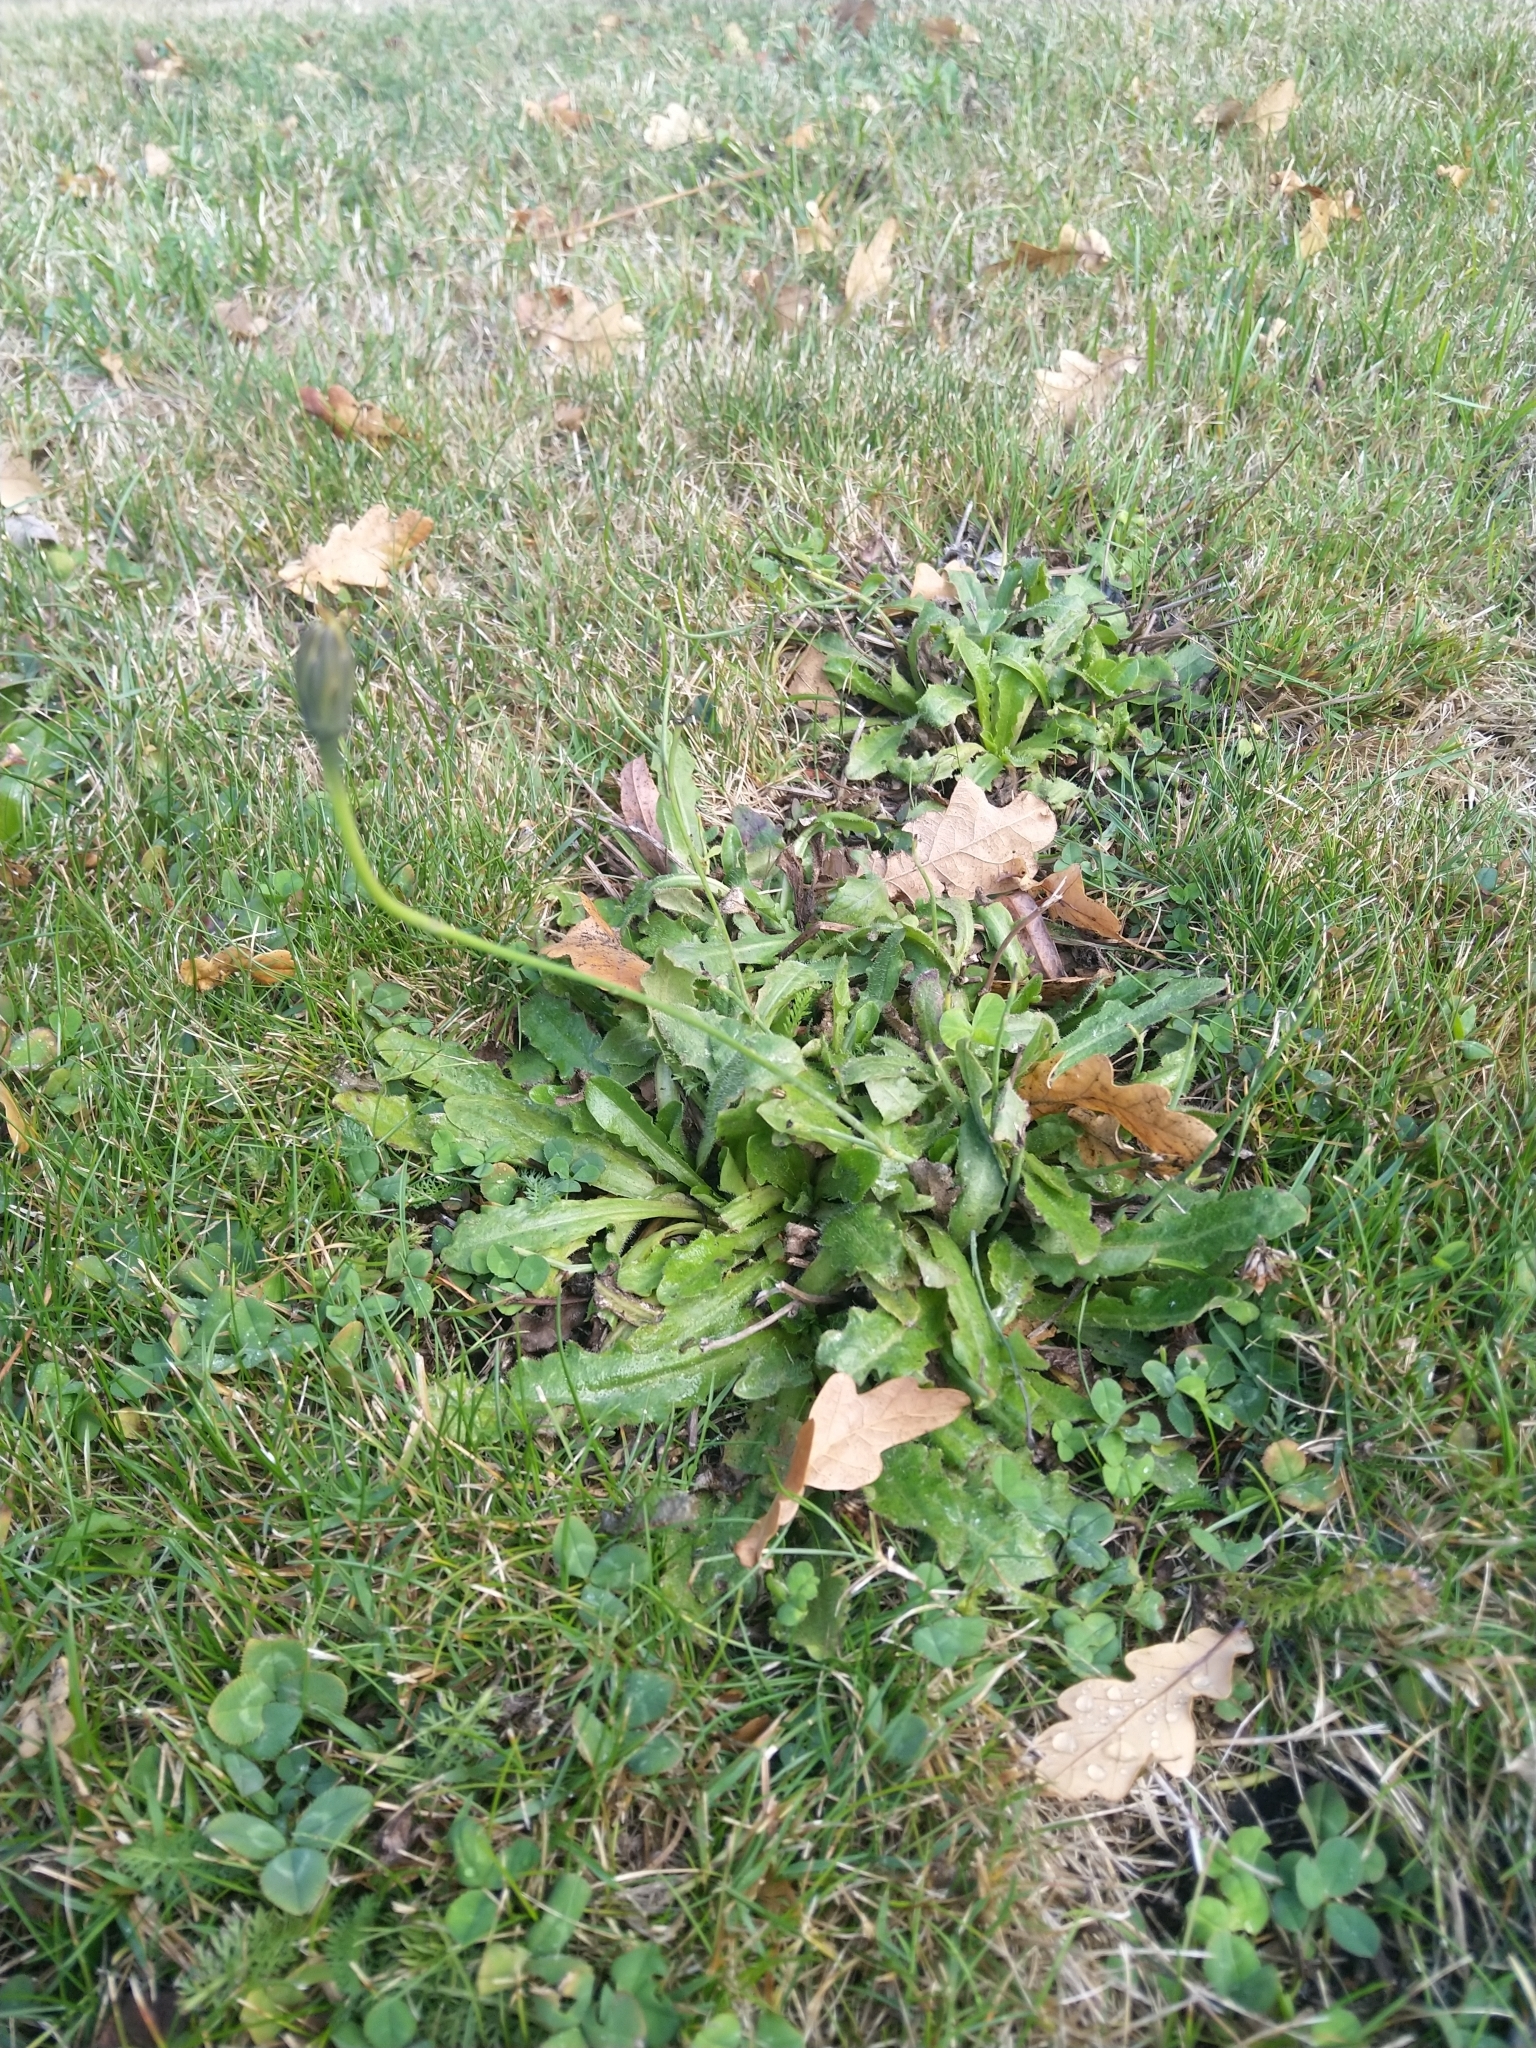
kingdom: Plantae
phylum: Tracheophyta
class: Magnoliopsida
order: Asterales
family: Asteraceae
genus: Hypochaeris
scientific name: Hypochaeris radicata
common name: Flatweed
